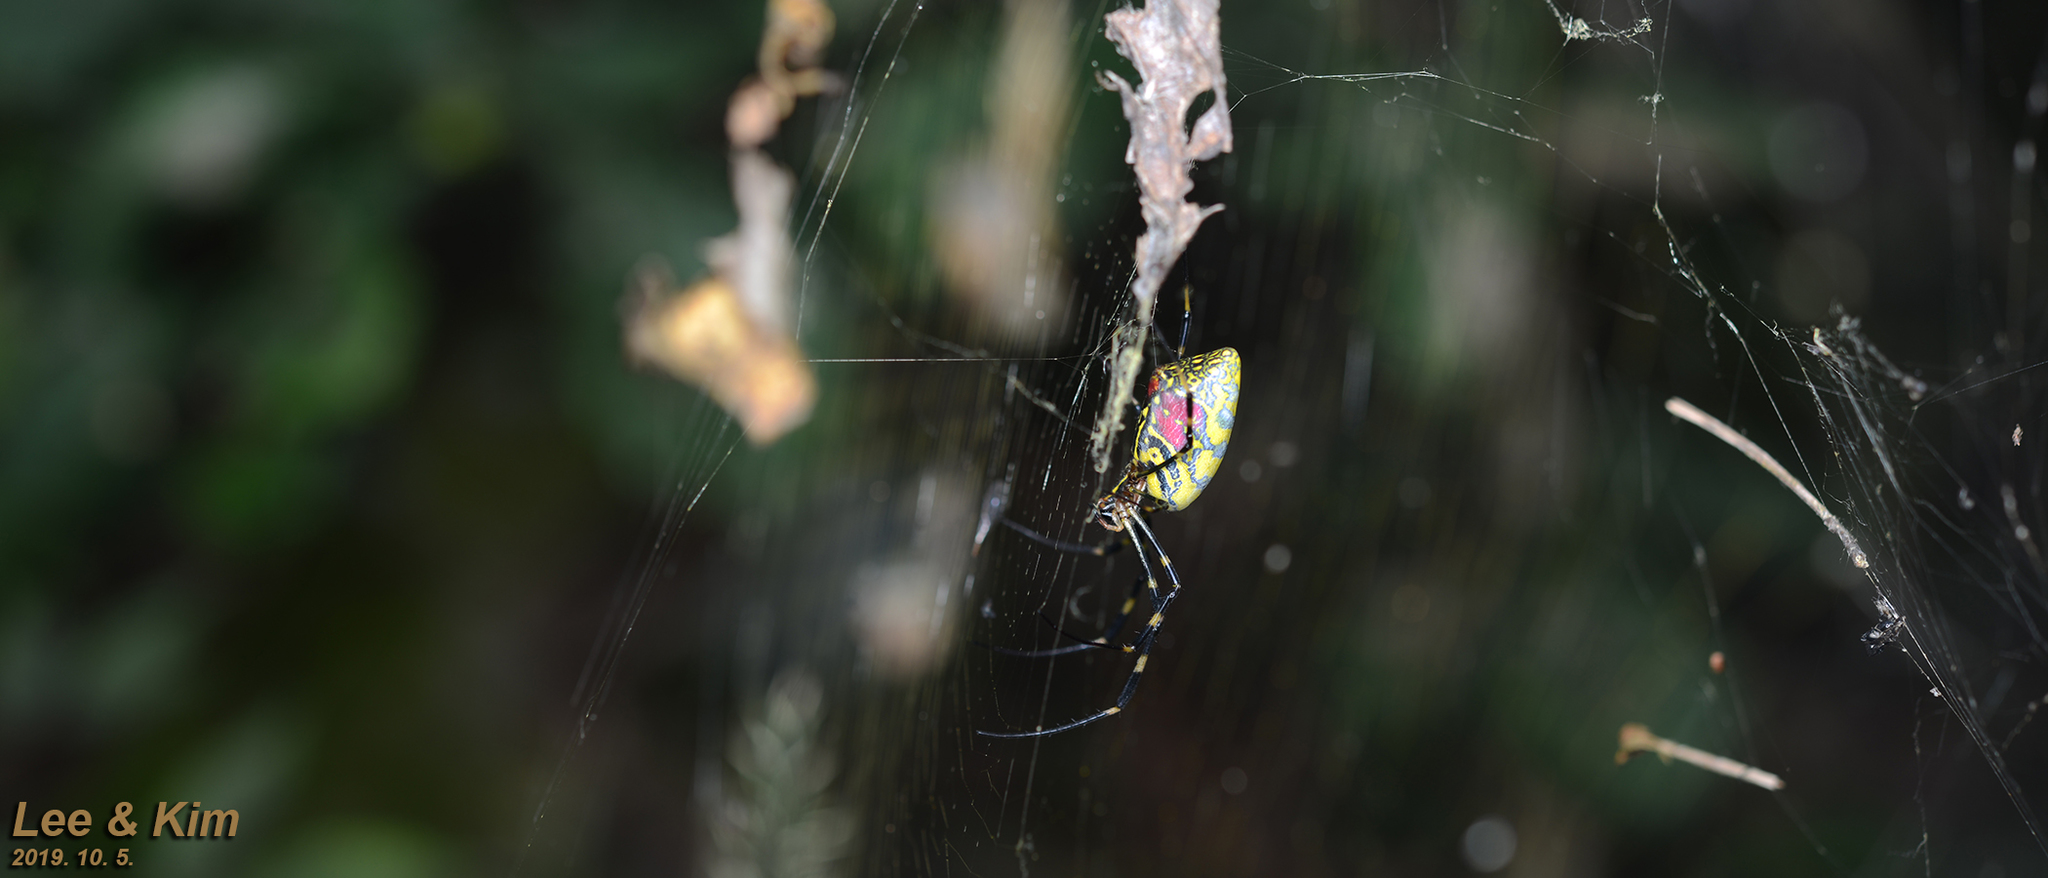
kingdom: Animalia
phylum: Arthropoda
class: Arachnida
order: Araneae
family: Araneidae
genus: Trichonephila
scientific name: Trichonephila clavata
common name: Jorō spider
